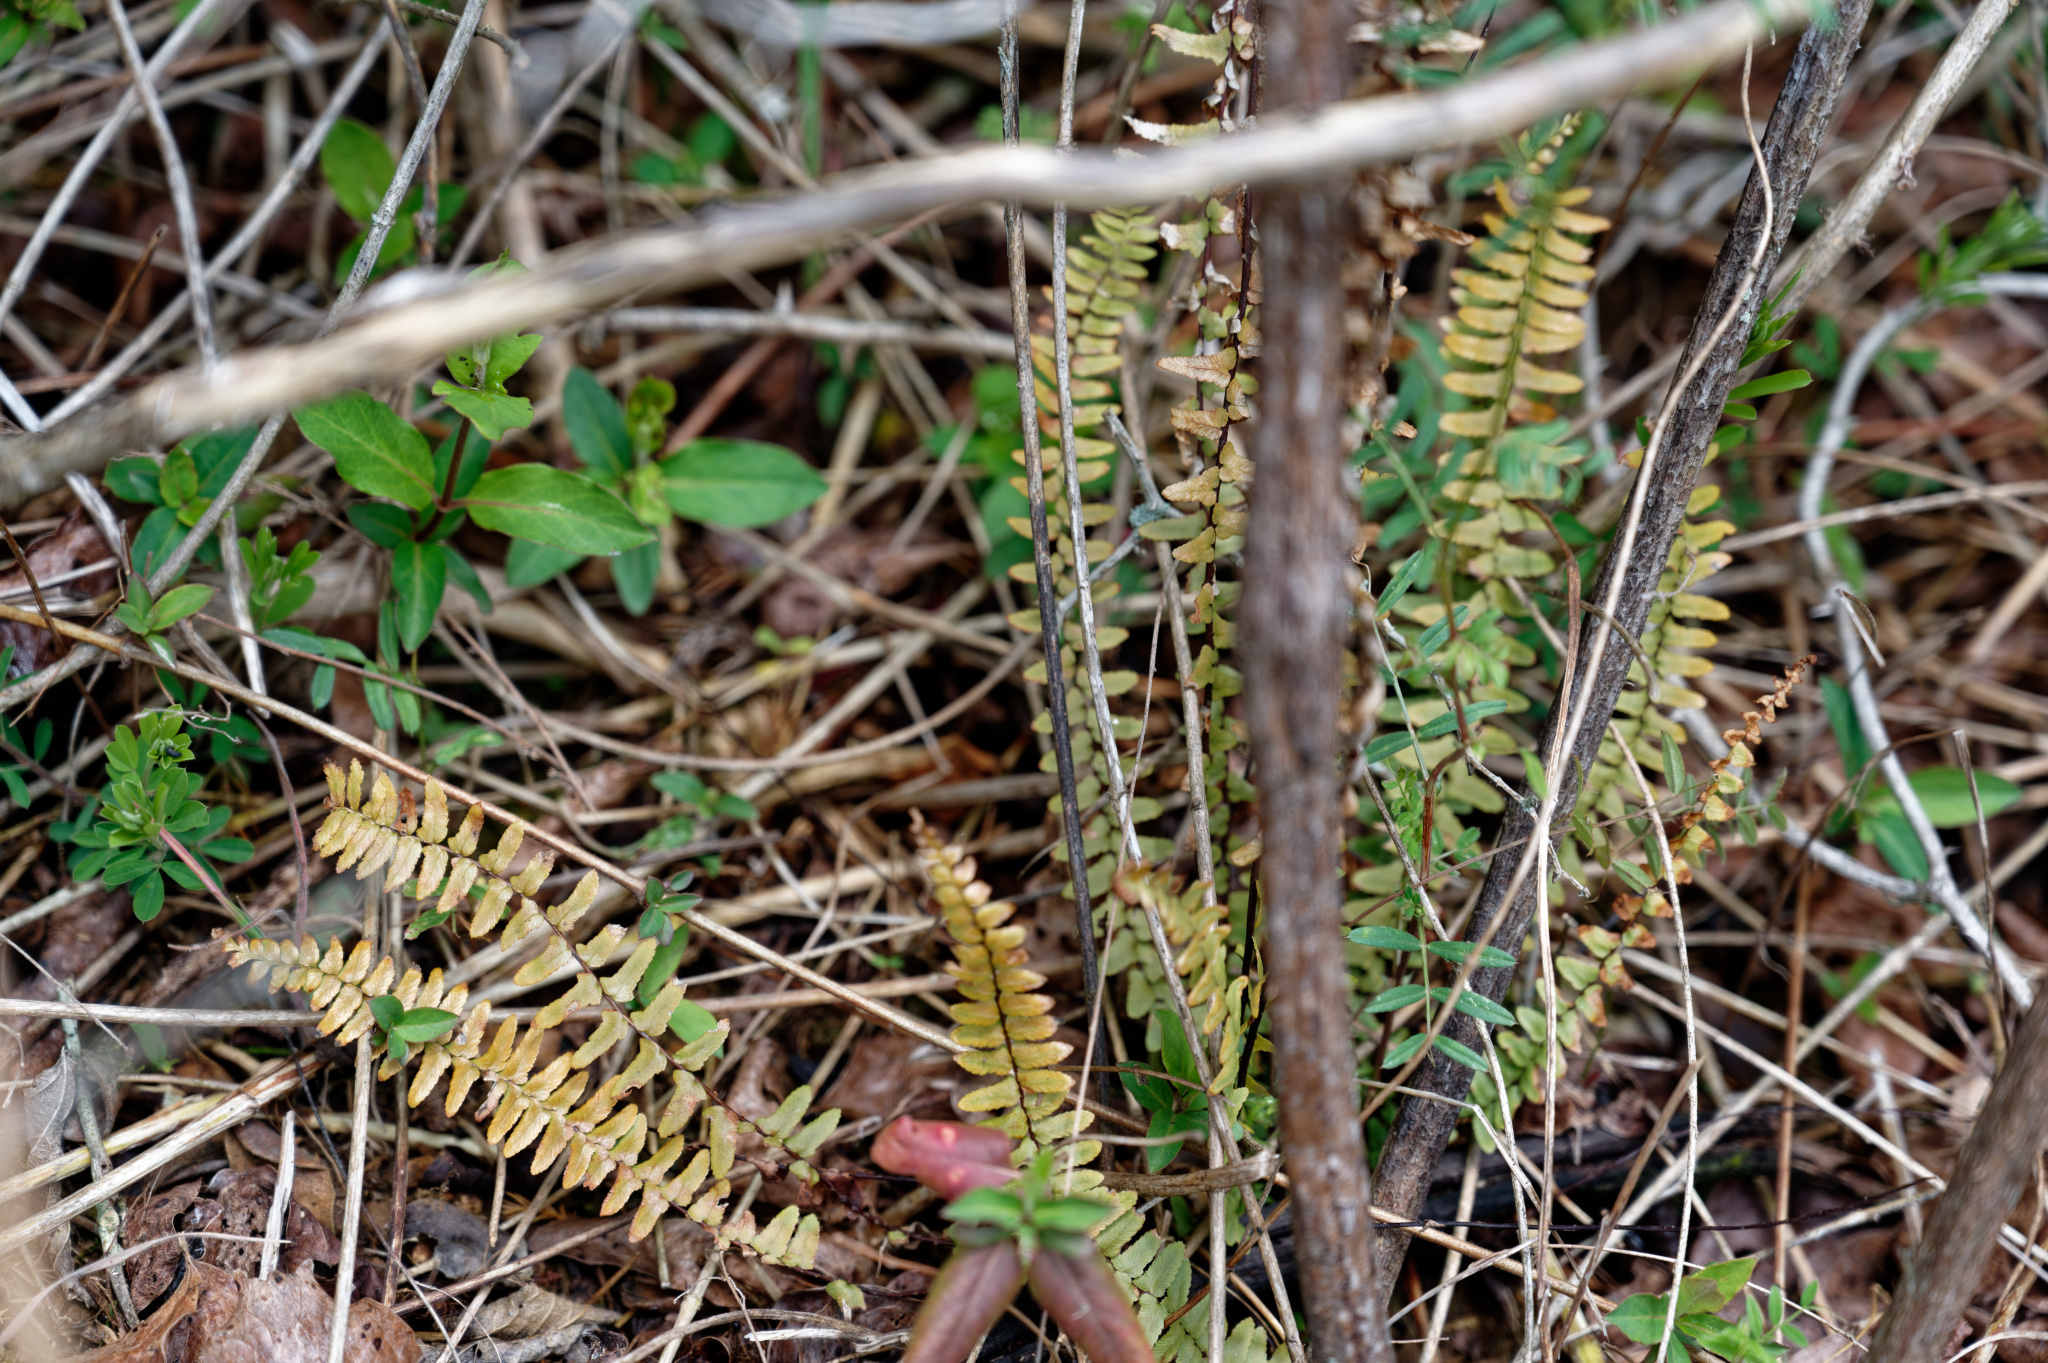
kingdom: Plantae
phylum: Tracheophyta
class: Polypodiopsida
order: Polypodiales
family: Aspleniaceae
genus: Asplenium
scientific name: Asplenium platyneuron
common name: Ebony spleenwort
